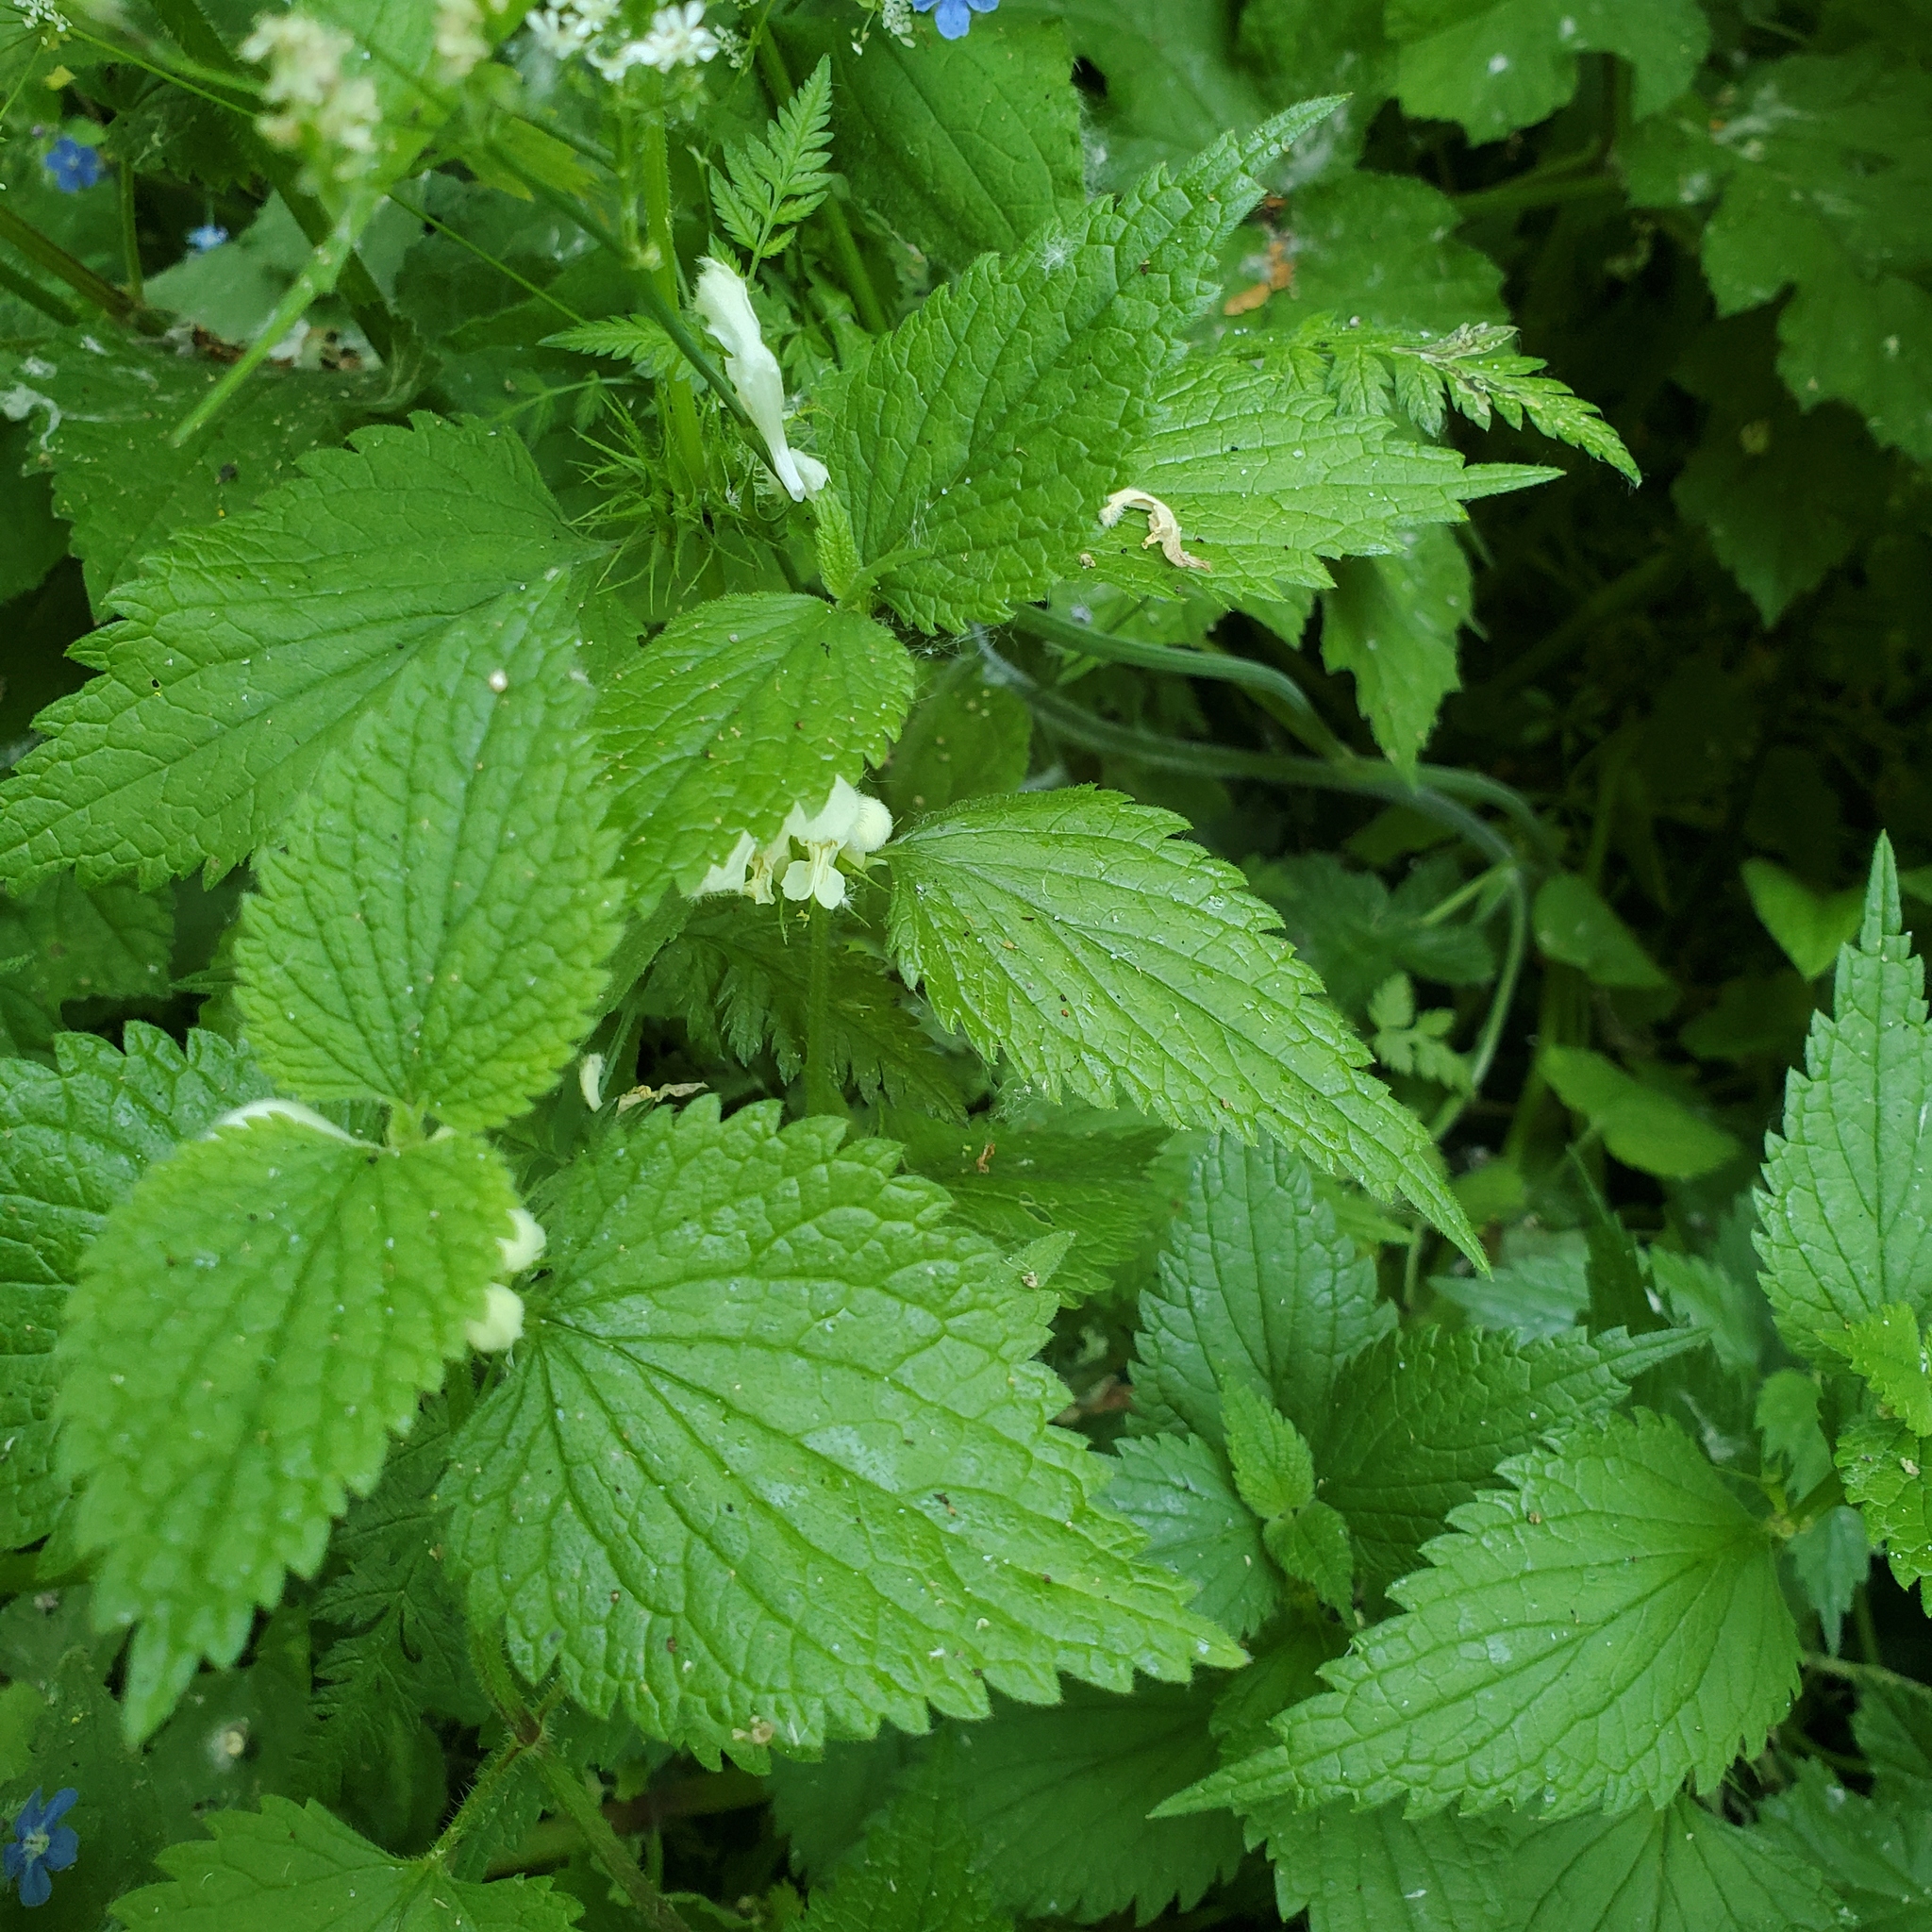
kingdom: Plantae
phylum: Tracheophyta
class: Magnoliopsida
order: Lamiales
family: Lamiaceae
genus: Lamium
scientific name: Lamium album
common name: White dead-nettle
